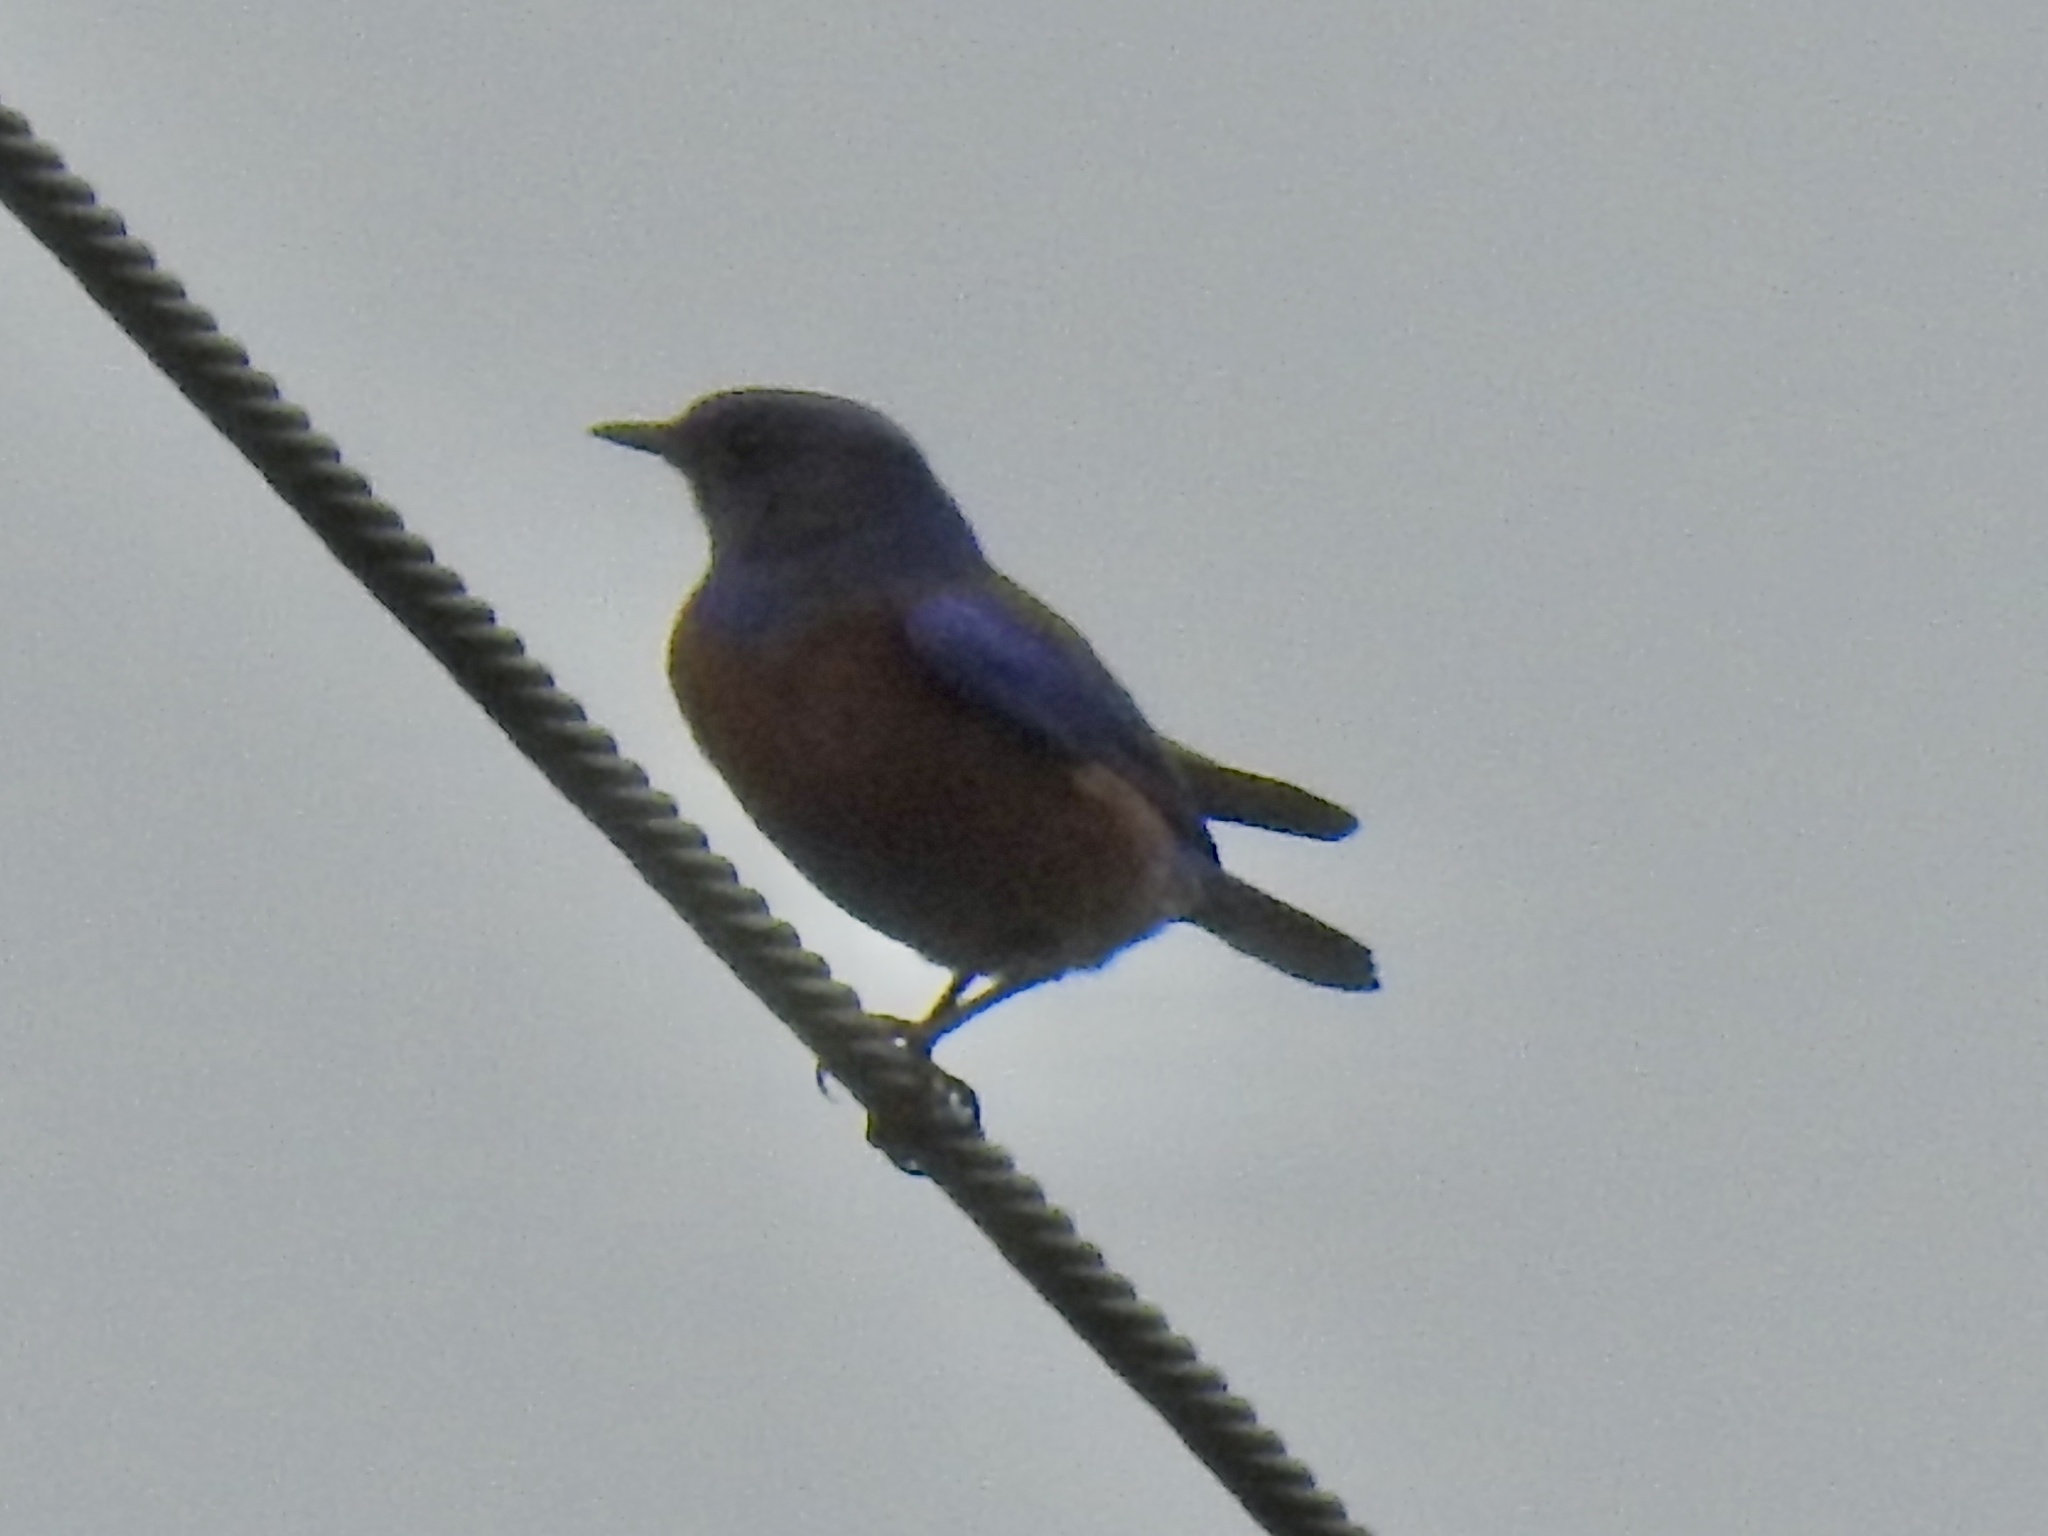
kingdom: Animalia
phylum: Chordata
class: Aves
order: Passeriformes
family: Turdidae
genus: Sialia
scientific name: Sialia mexicana
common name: Western bluebird
